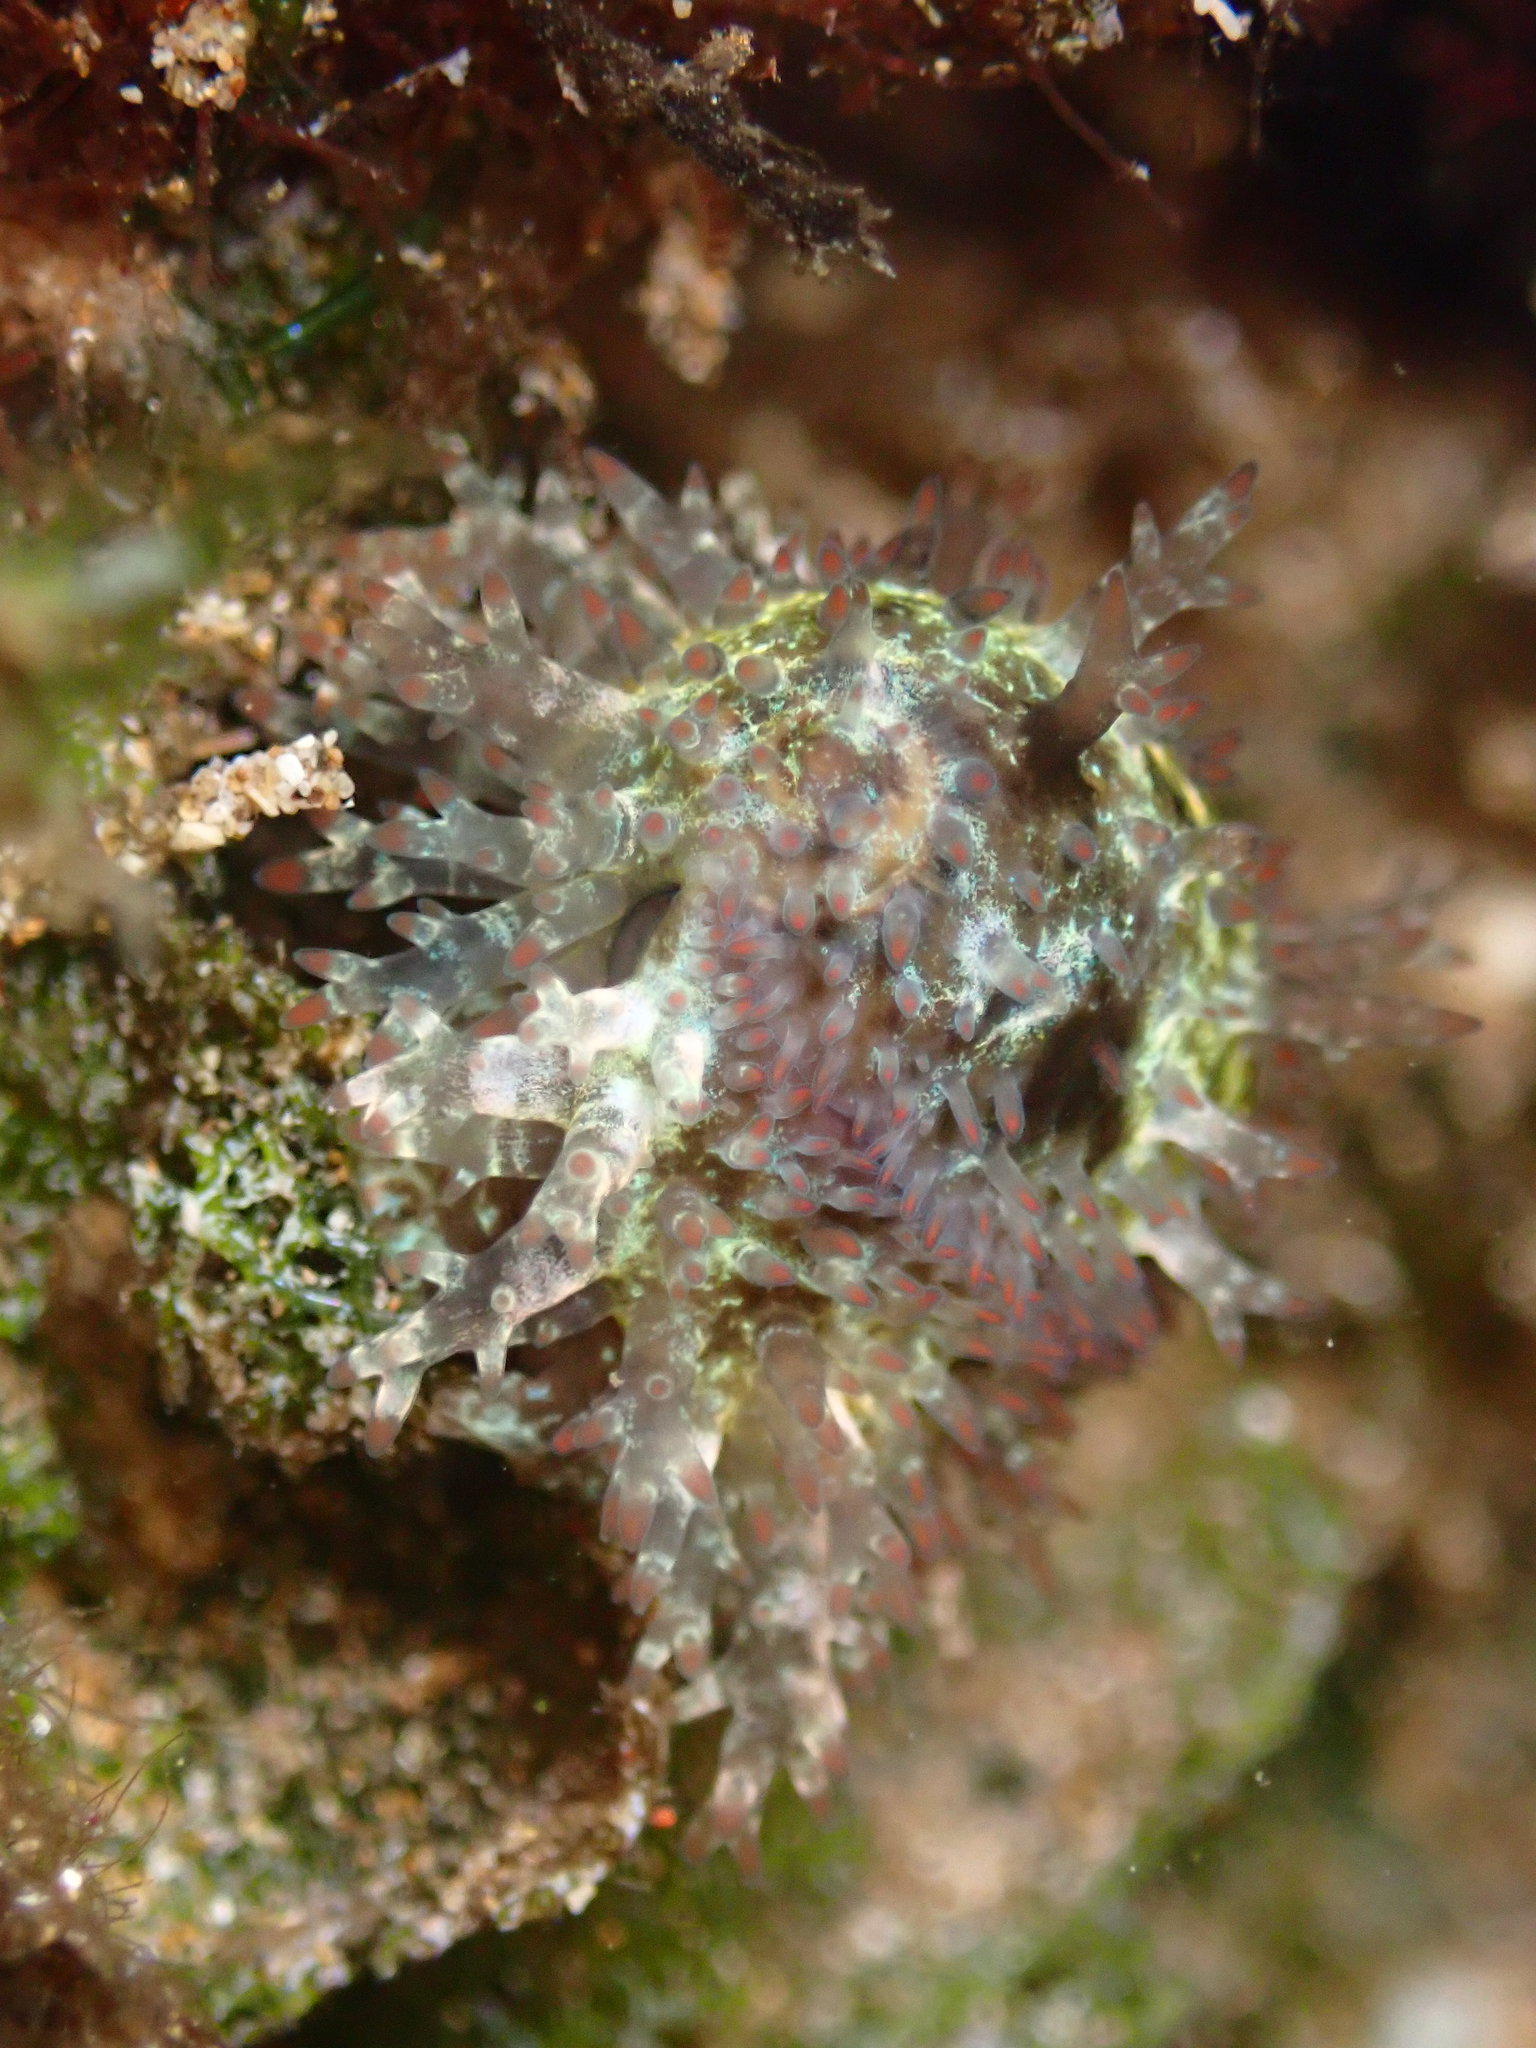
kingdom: Animalia
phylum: Mollusca
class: Gastropoda
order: Littorinimorpha
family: Cypraeidae
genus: Monetaria
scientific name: Monetaria caputophidii
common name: Snake's head cowry
